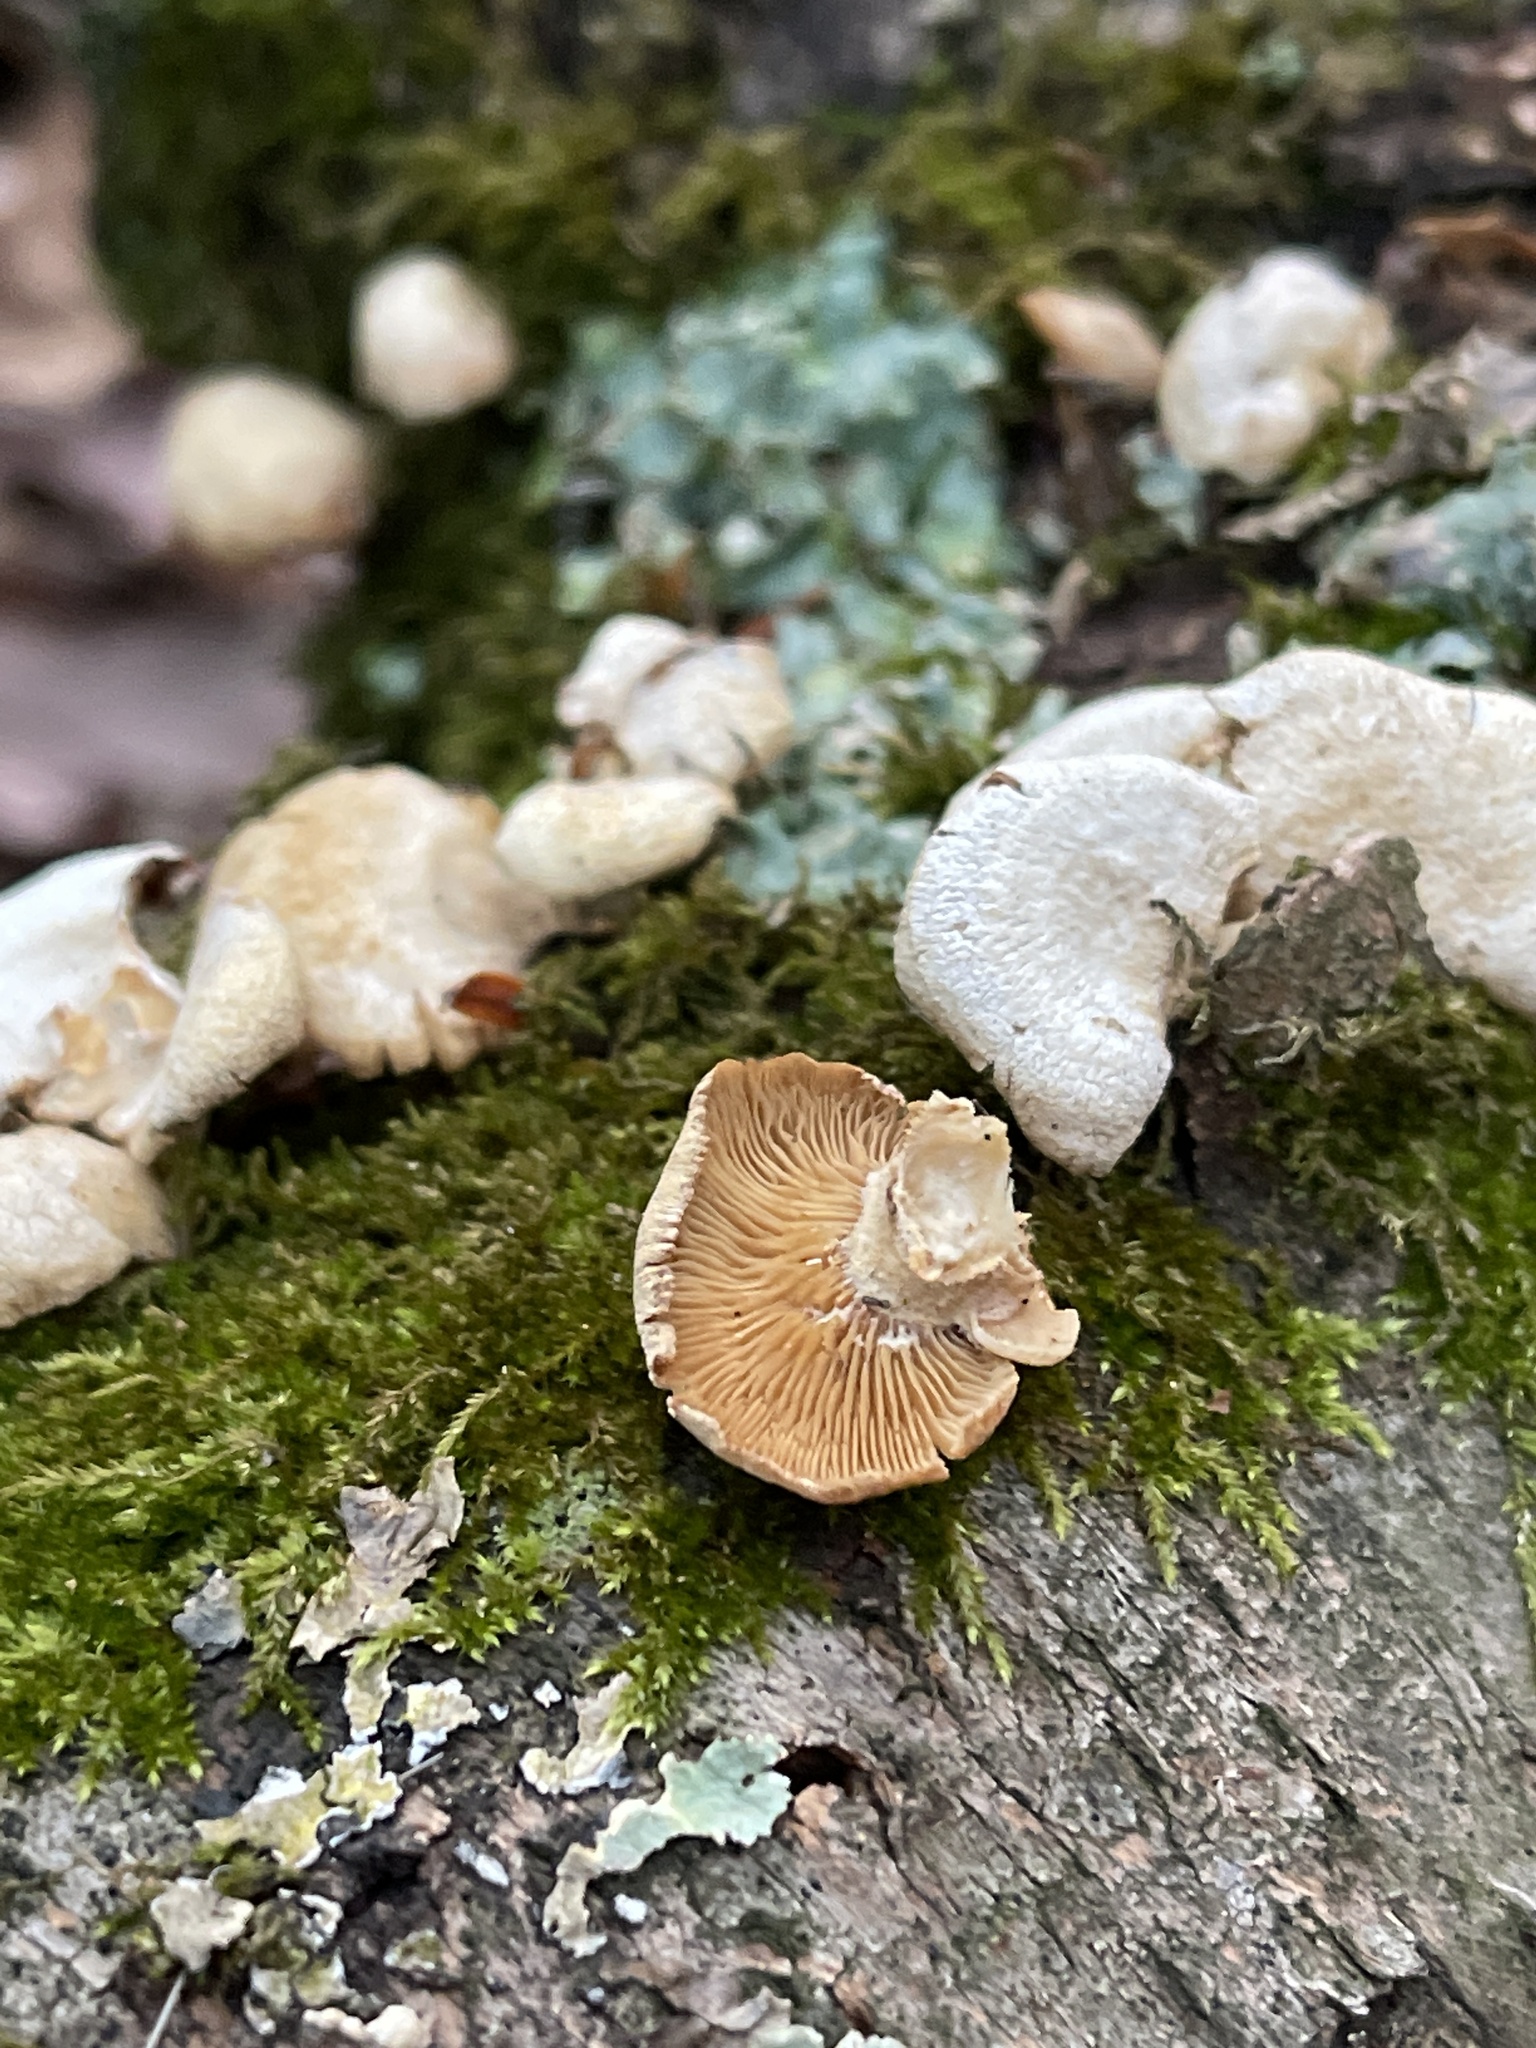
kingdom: Fungi
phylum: Basidiomycota
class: Agaricomycetes
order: Agaricales
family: Mycenaceae
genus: Panellus
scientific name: Panellus stipticus
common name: Bitter oysterling
